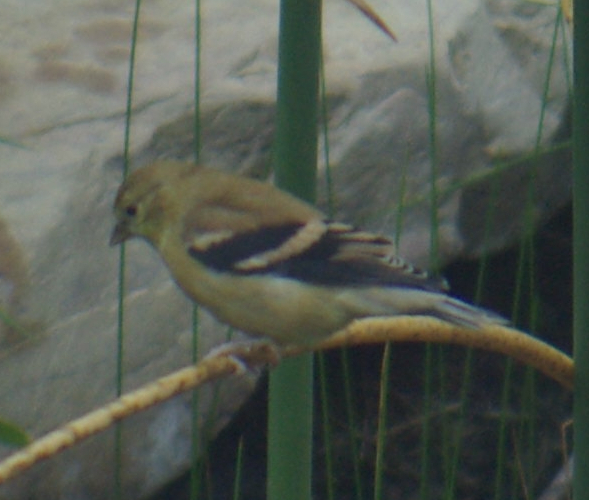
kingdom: Animalia
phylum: Chordata
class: Aves
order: Passeriformes
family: Fringillidae
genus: Spinus
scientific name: Spinus tristis
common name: American goldfinch
